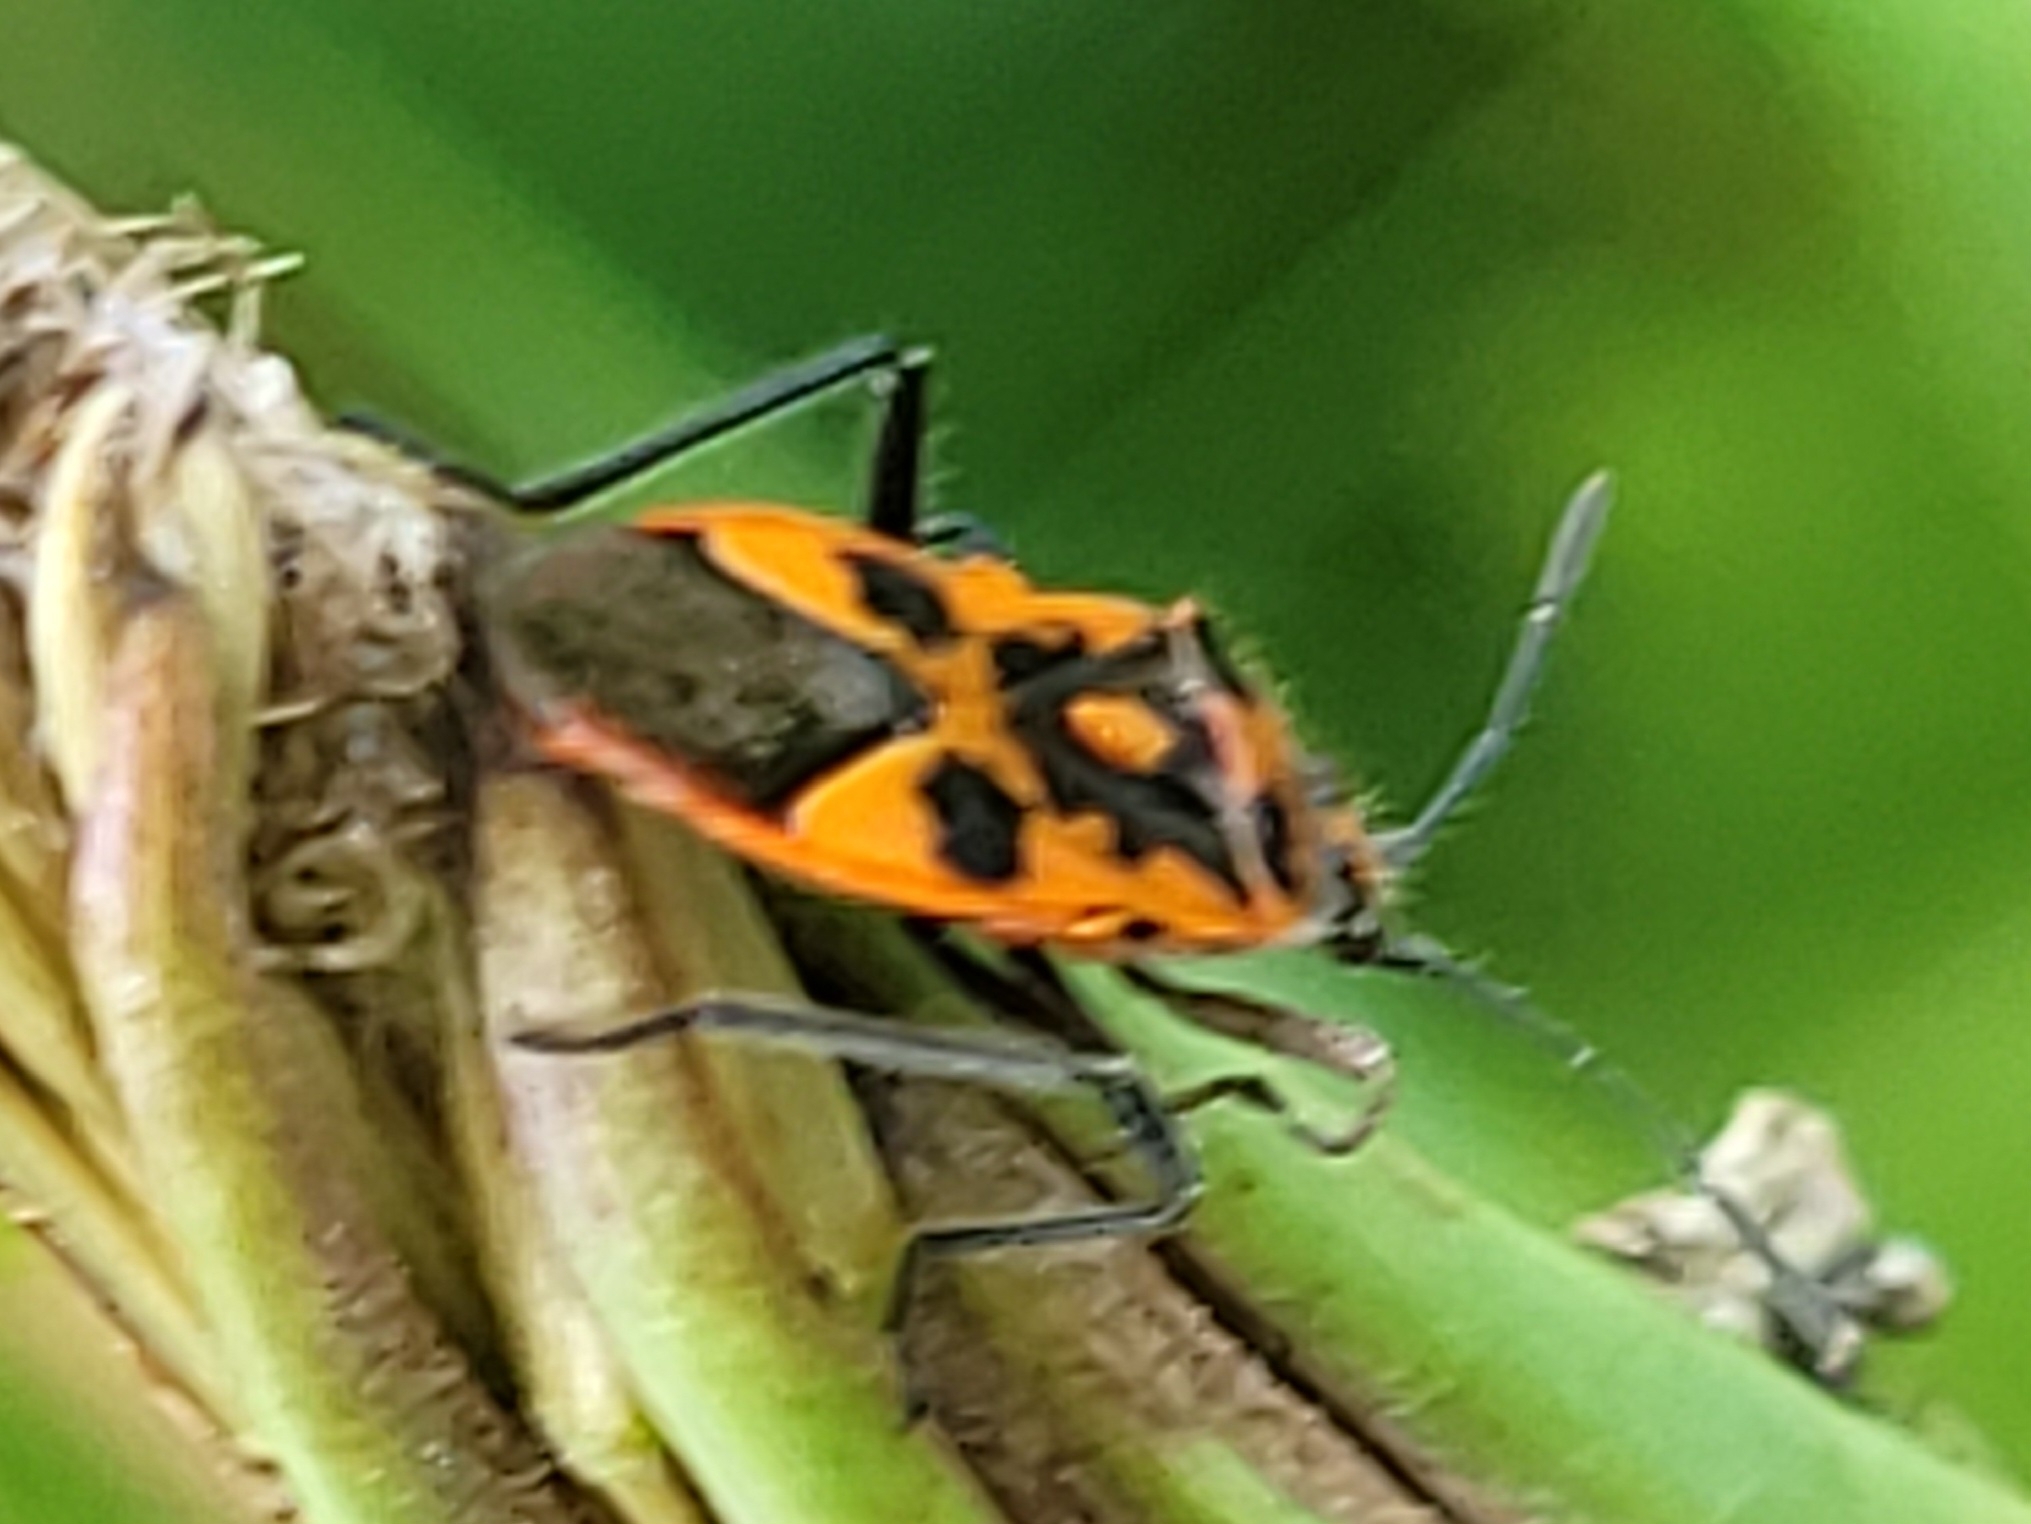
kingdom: Animalia
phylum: Arthropoda
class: Insecta
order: Hemiptera
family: Rhopalidae
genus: Corizus
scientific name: Corizus hyoscyami
